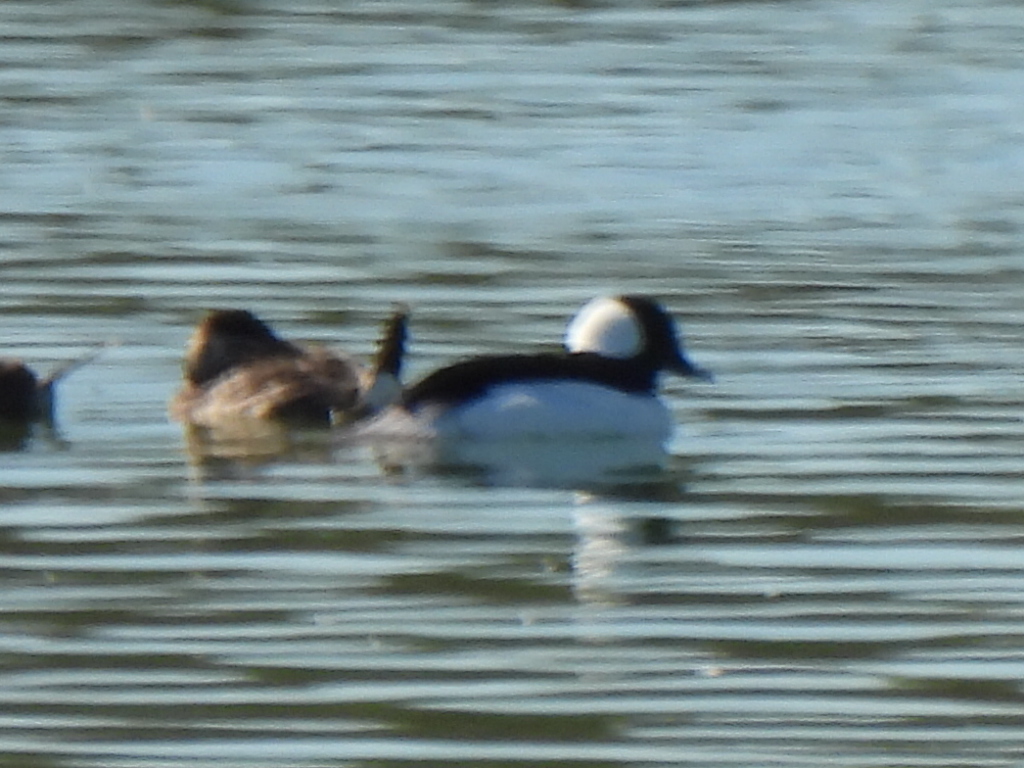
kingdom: Animalia
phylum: Chordata
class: Aves
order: Anseriformes
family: Anatidae
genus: Bucephala
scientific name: Bucephala albeola
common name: Bufflehead
